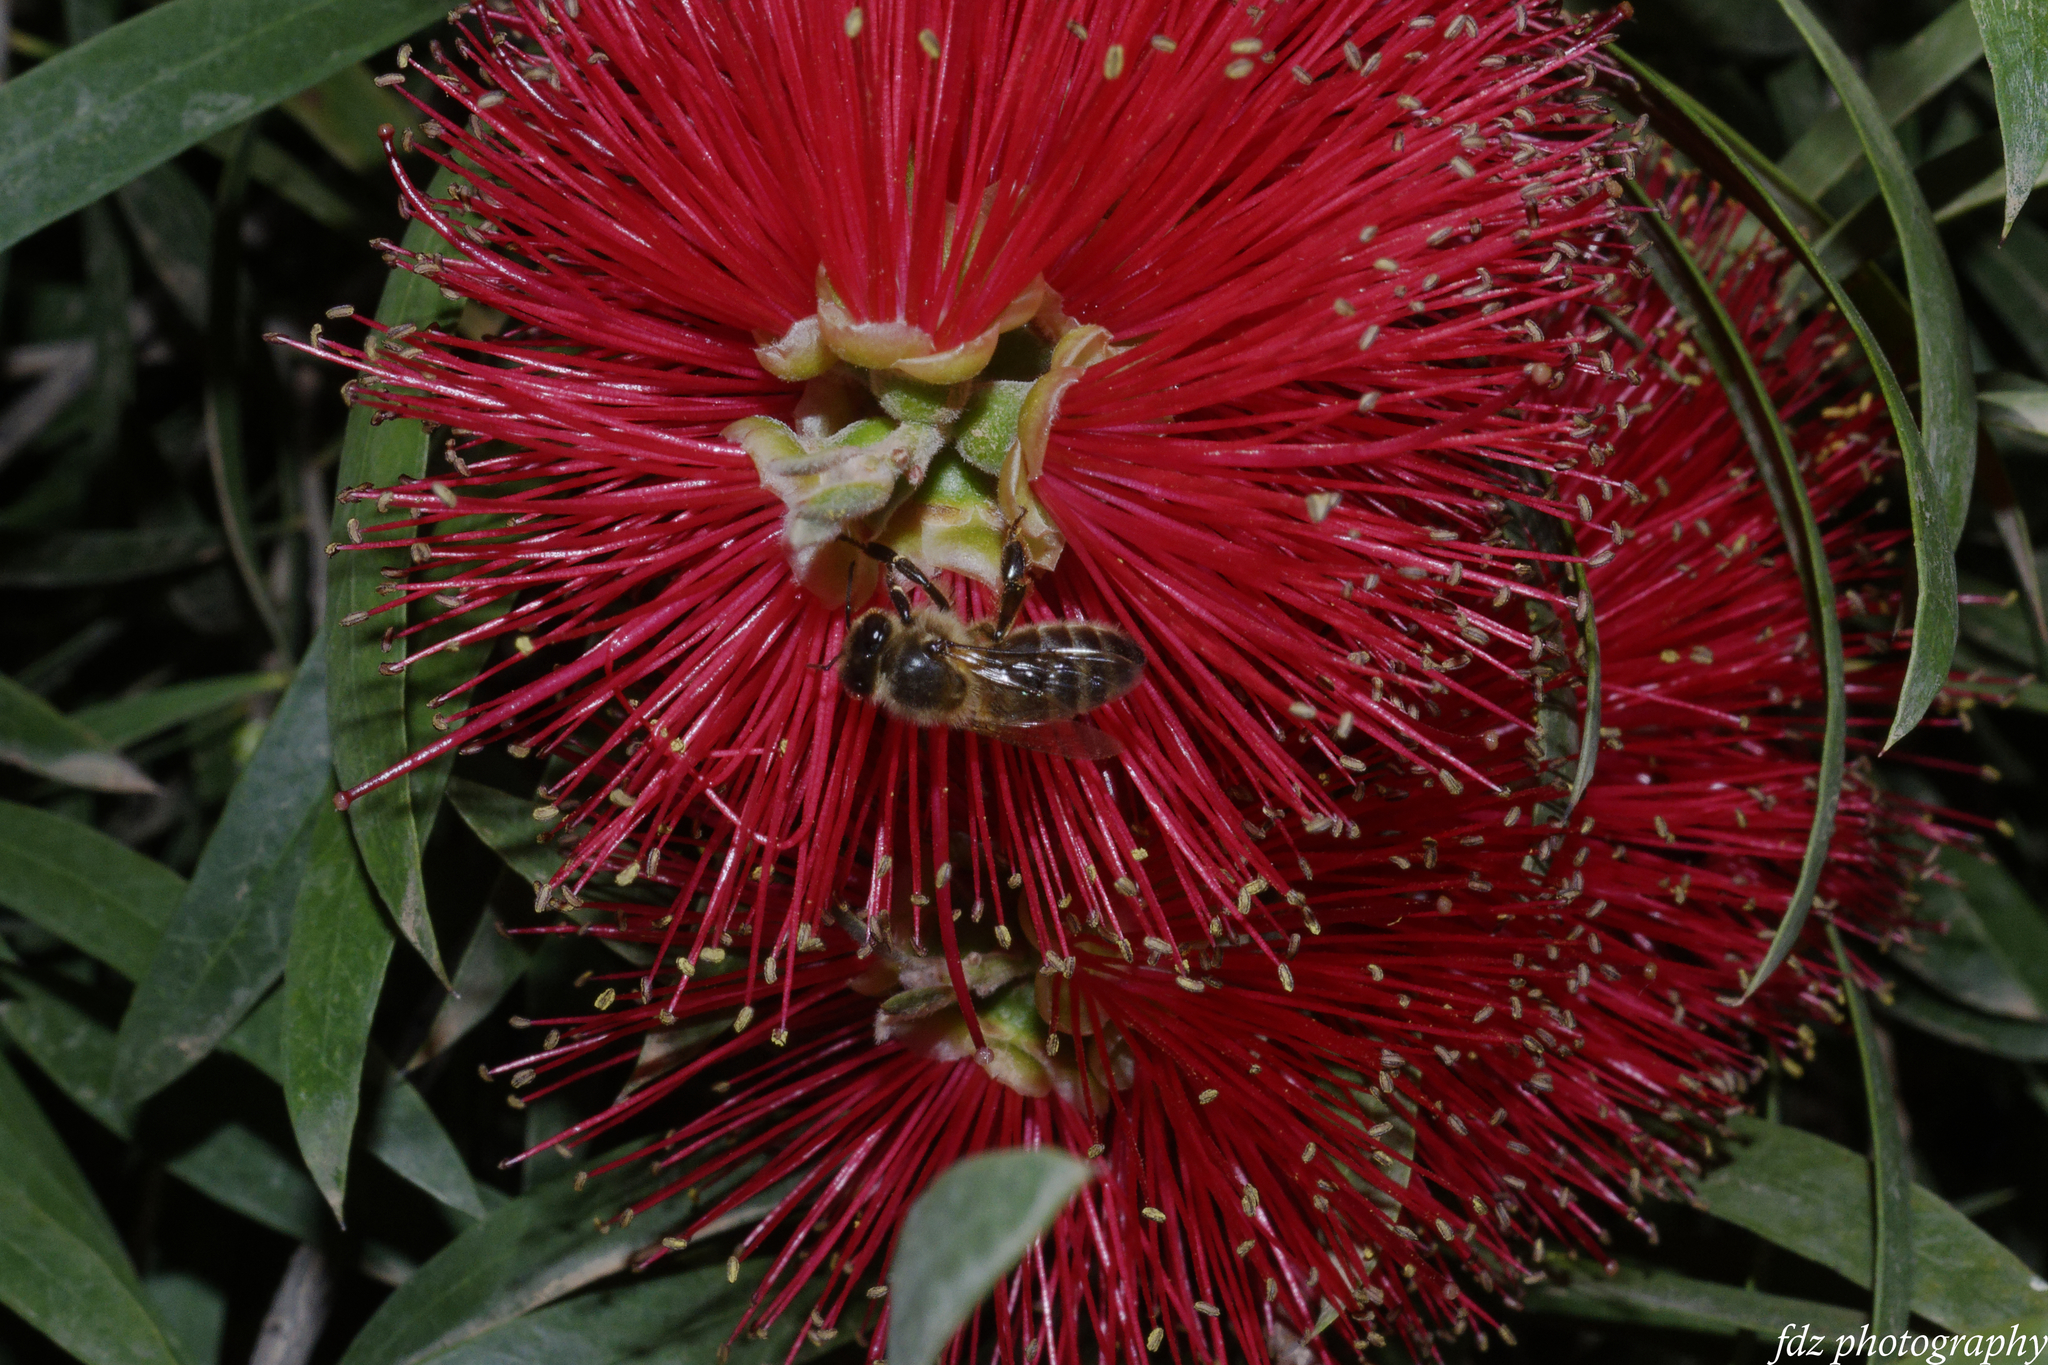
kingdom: Animalia
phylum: Arthropoda
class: Insecta
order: Hymenoptera
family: Apidae
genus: Apis
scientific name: Apis mellifera
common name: Honey bee
